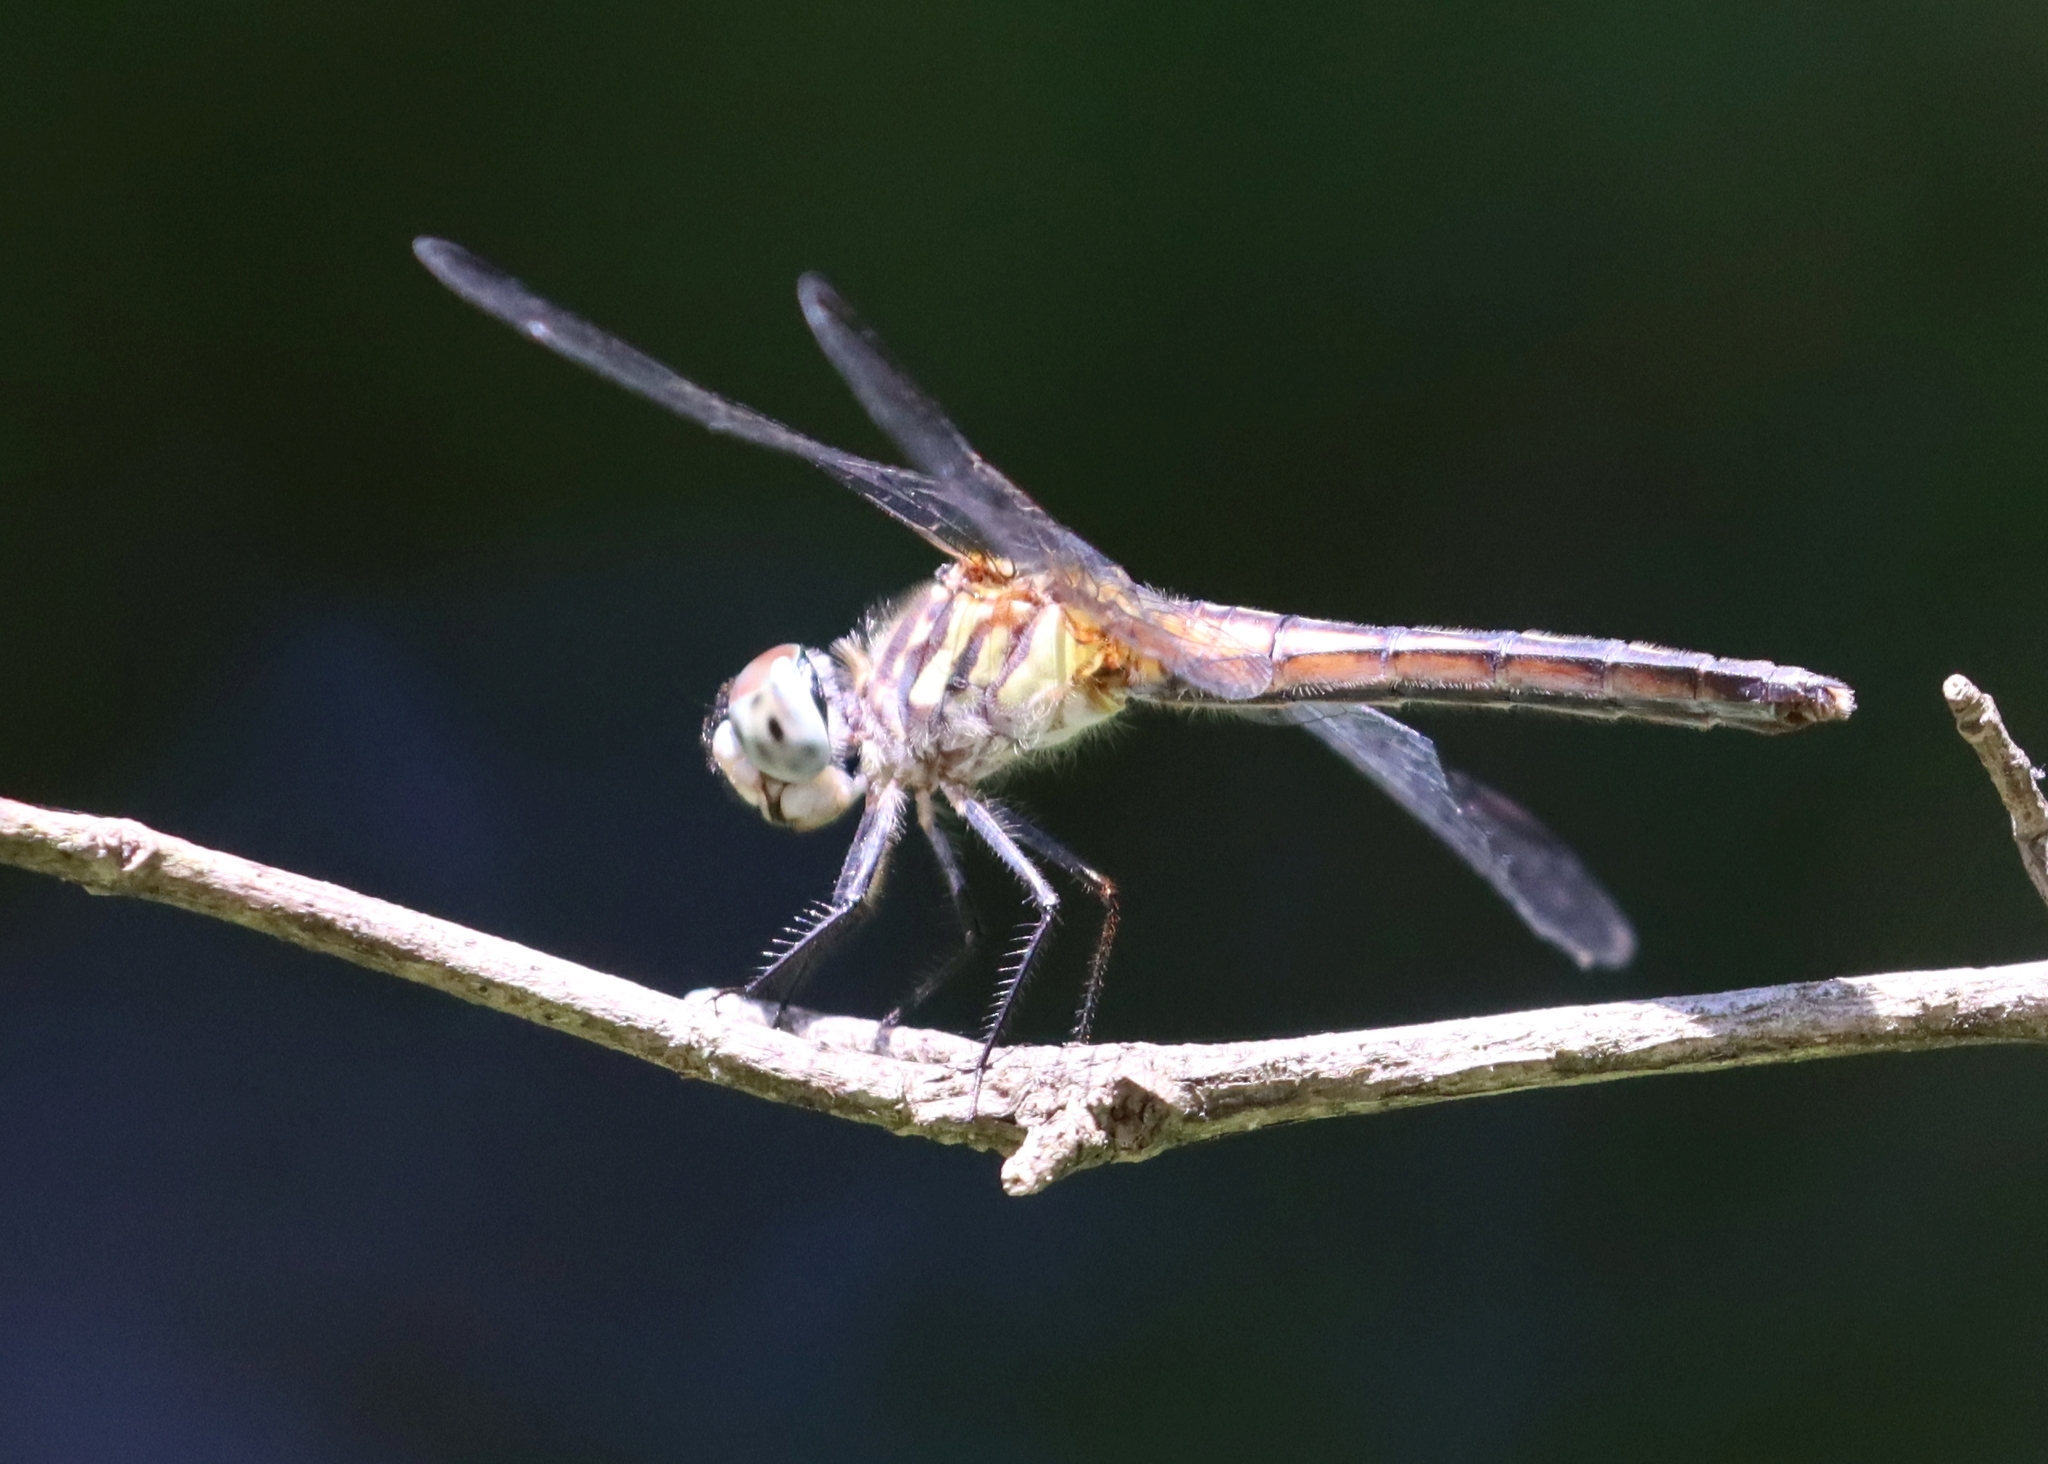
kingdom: Animalia
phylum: Arthropoda
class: Insecta
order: Odonata
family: Libellulidae
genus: Pachydiplax
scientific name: Pachydiplax longipennis
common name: Blue dasher
